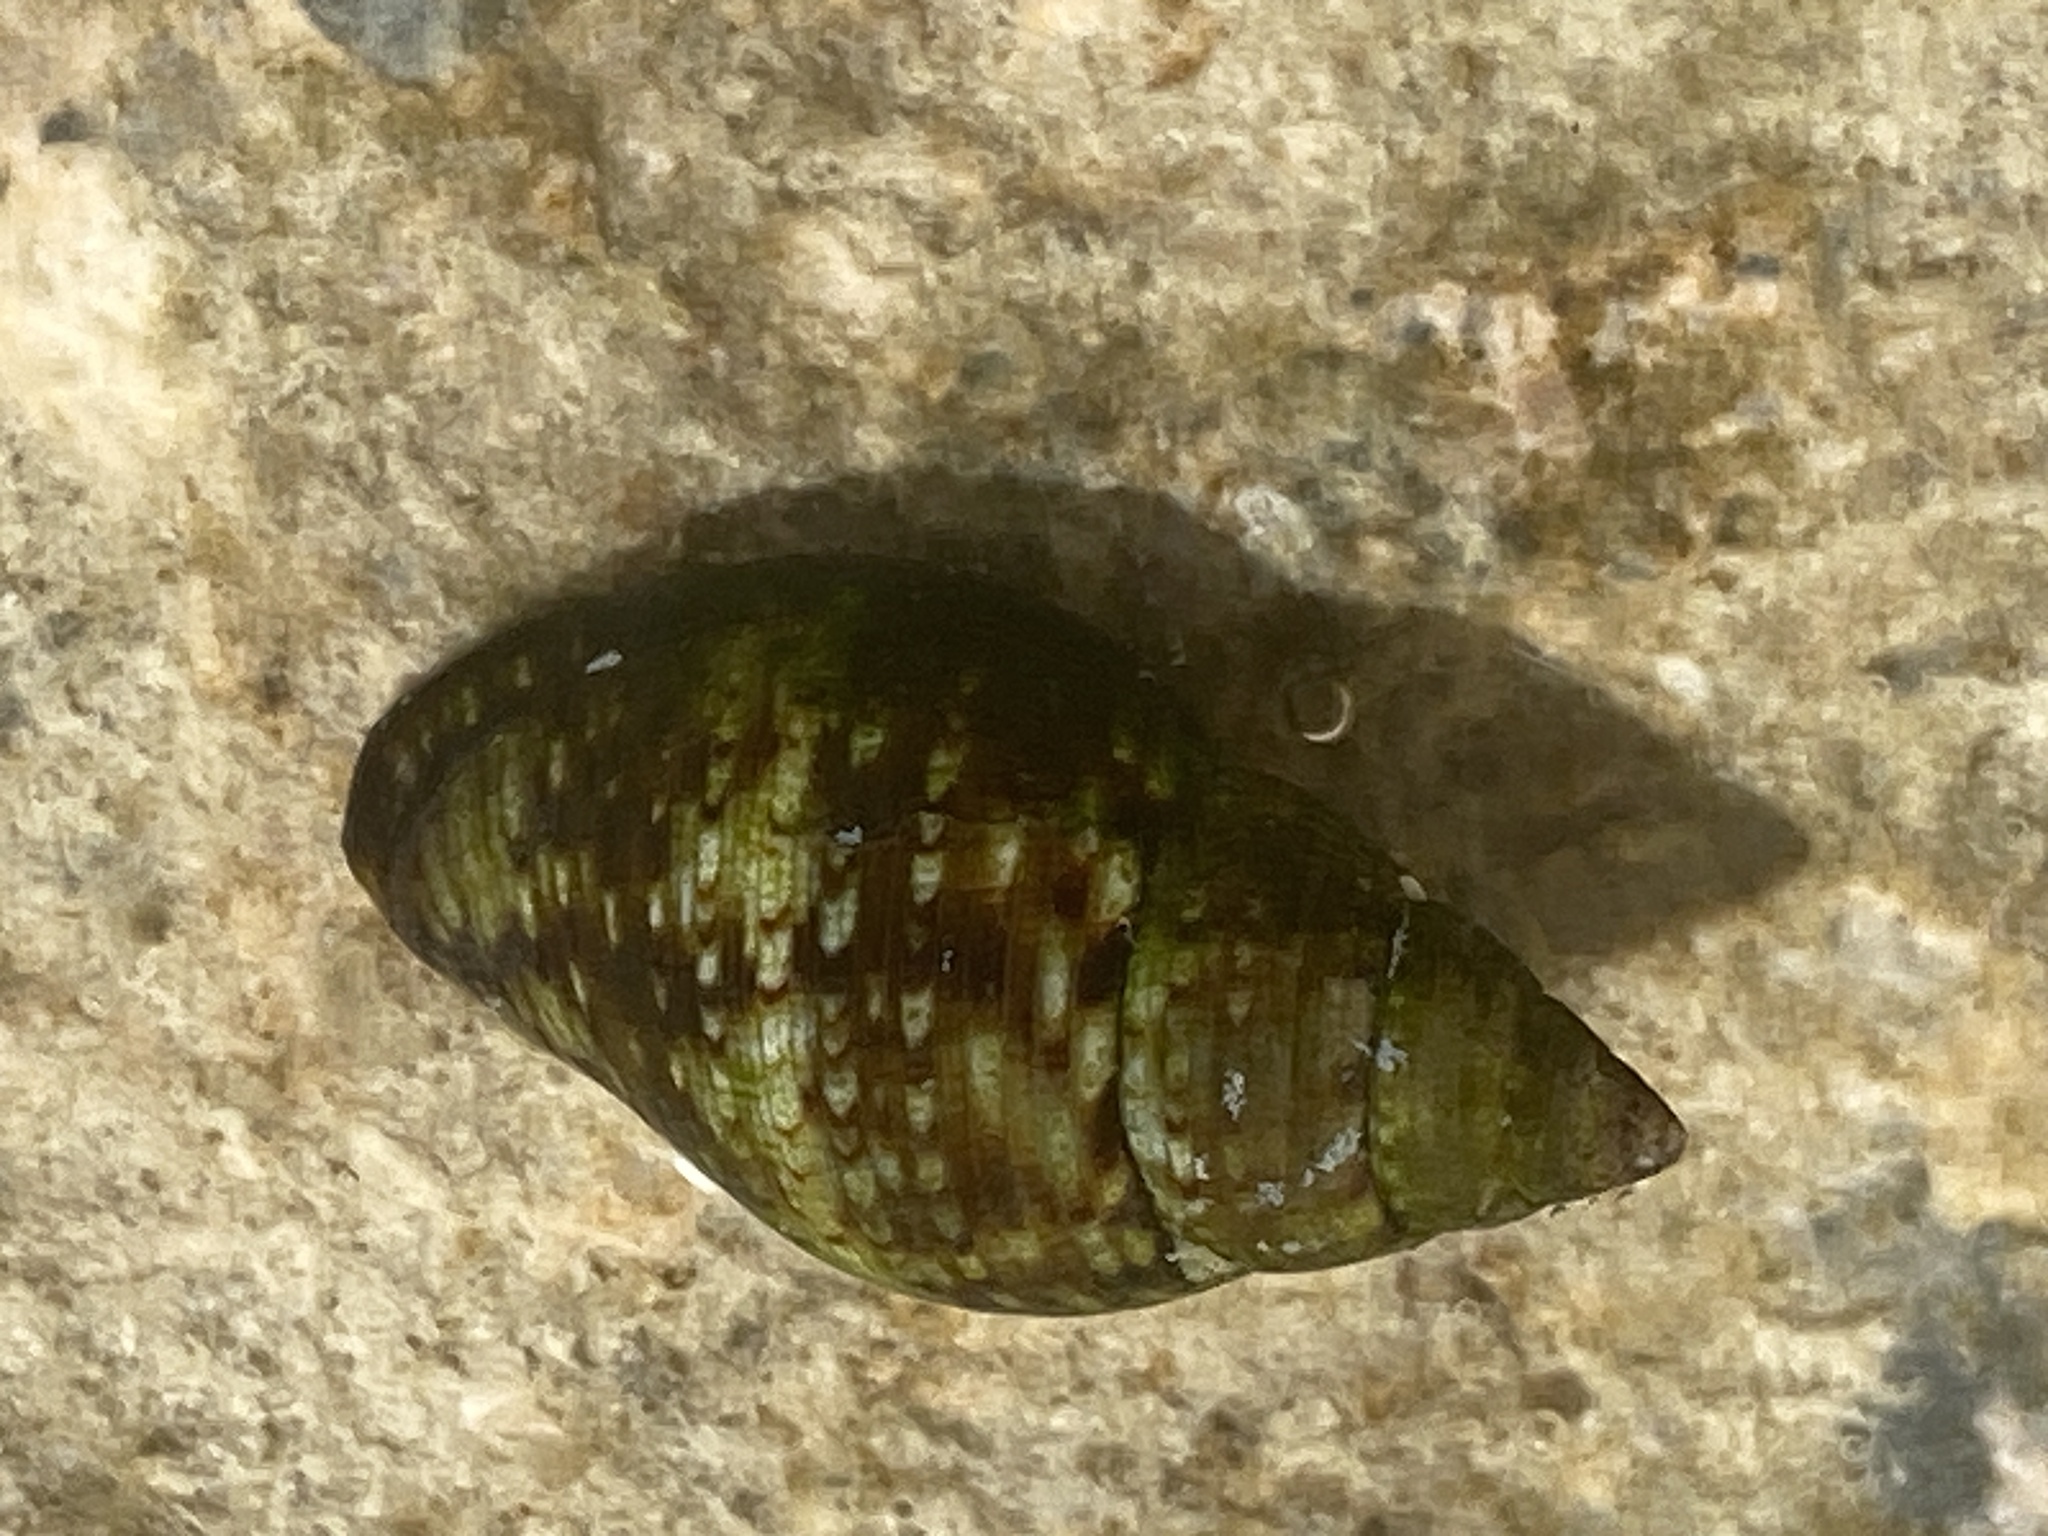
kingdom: Animalia
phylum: Mollusca
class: Gastropoda
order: Neogastropoda
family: Pisaniidae
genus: Pisania
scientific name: Pisania striata
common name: Spotted pisania
